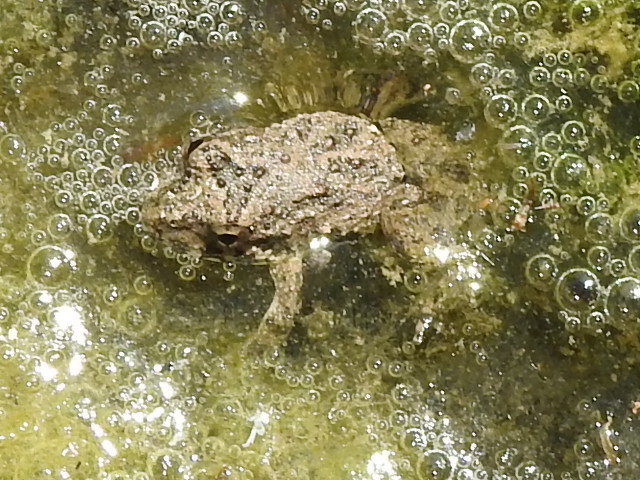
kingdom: Animalia
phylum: Chordata
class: Amphibia
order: Anura
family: Hylidae
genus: Acris
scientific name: Acris blanchardi
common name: Blanchard's cricket frog
